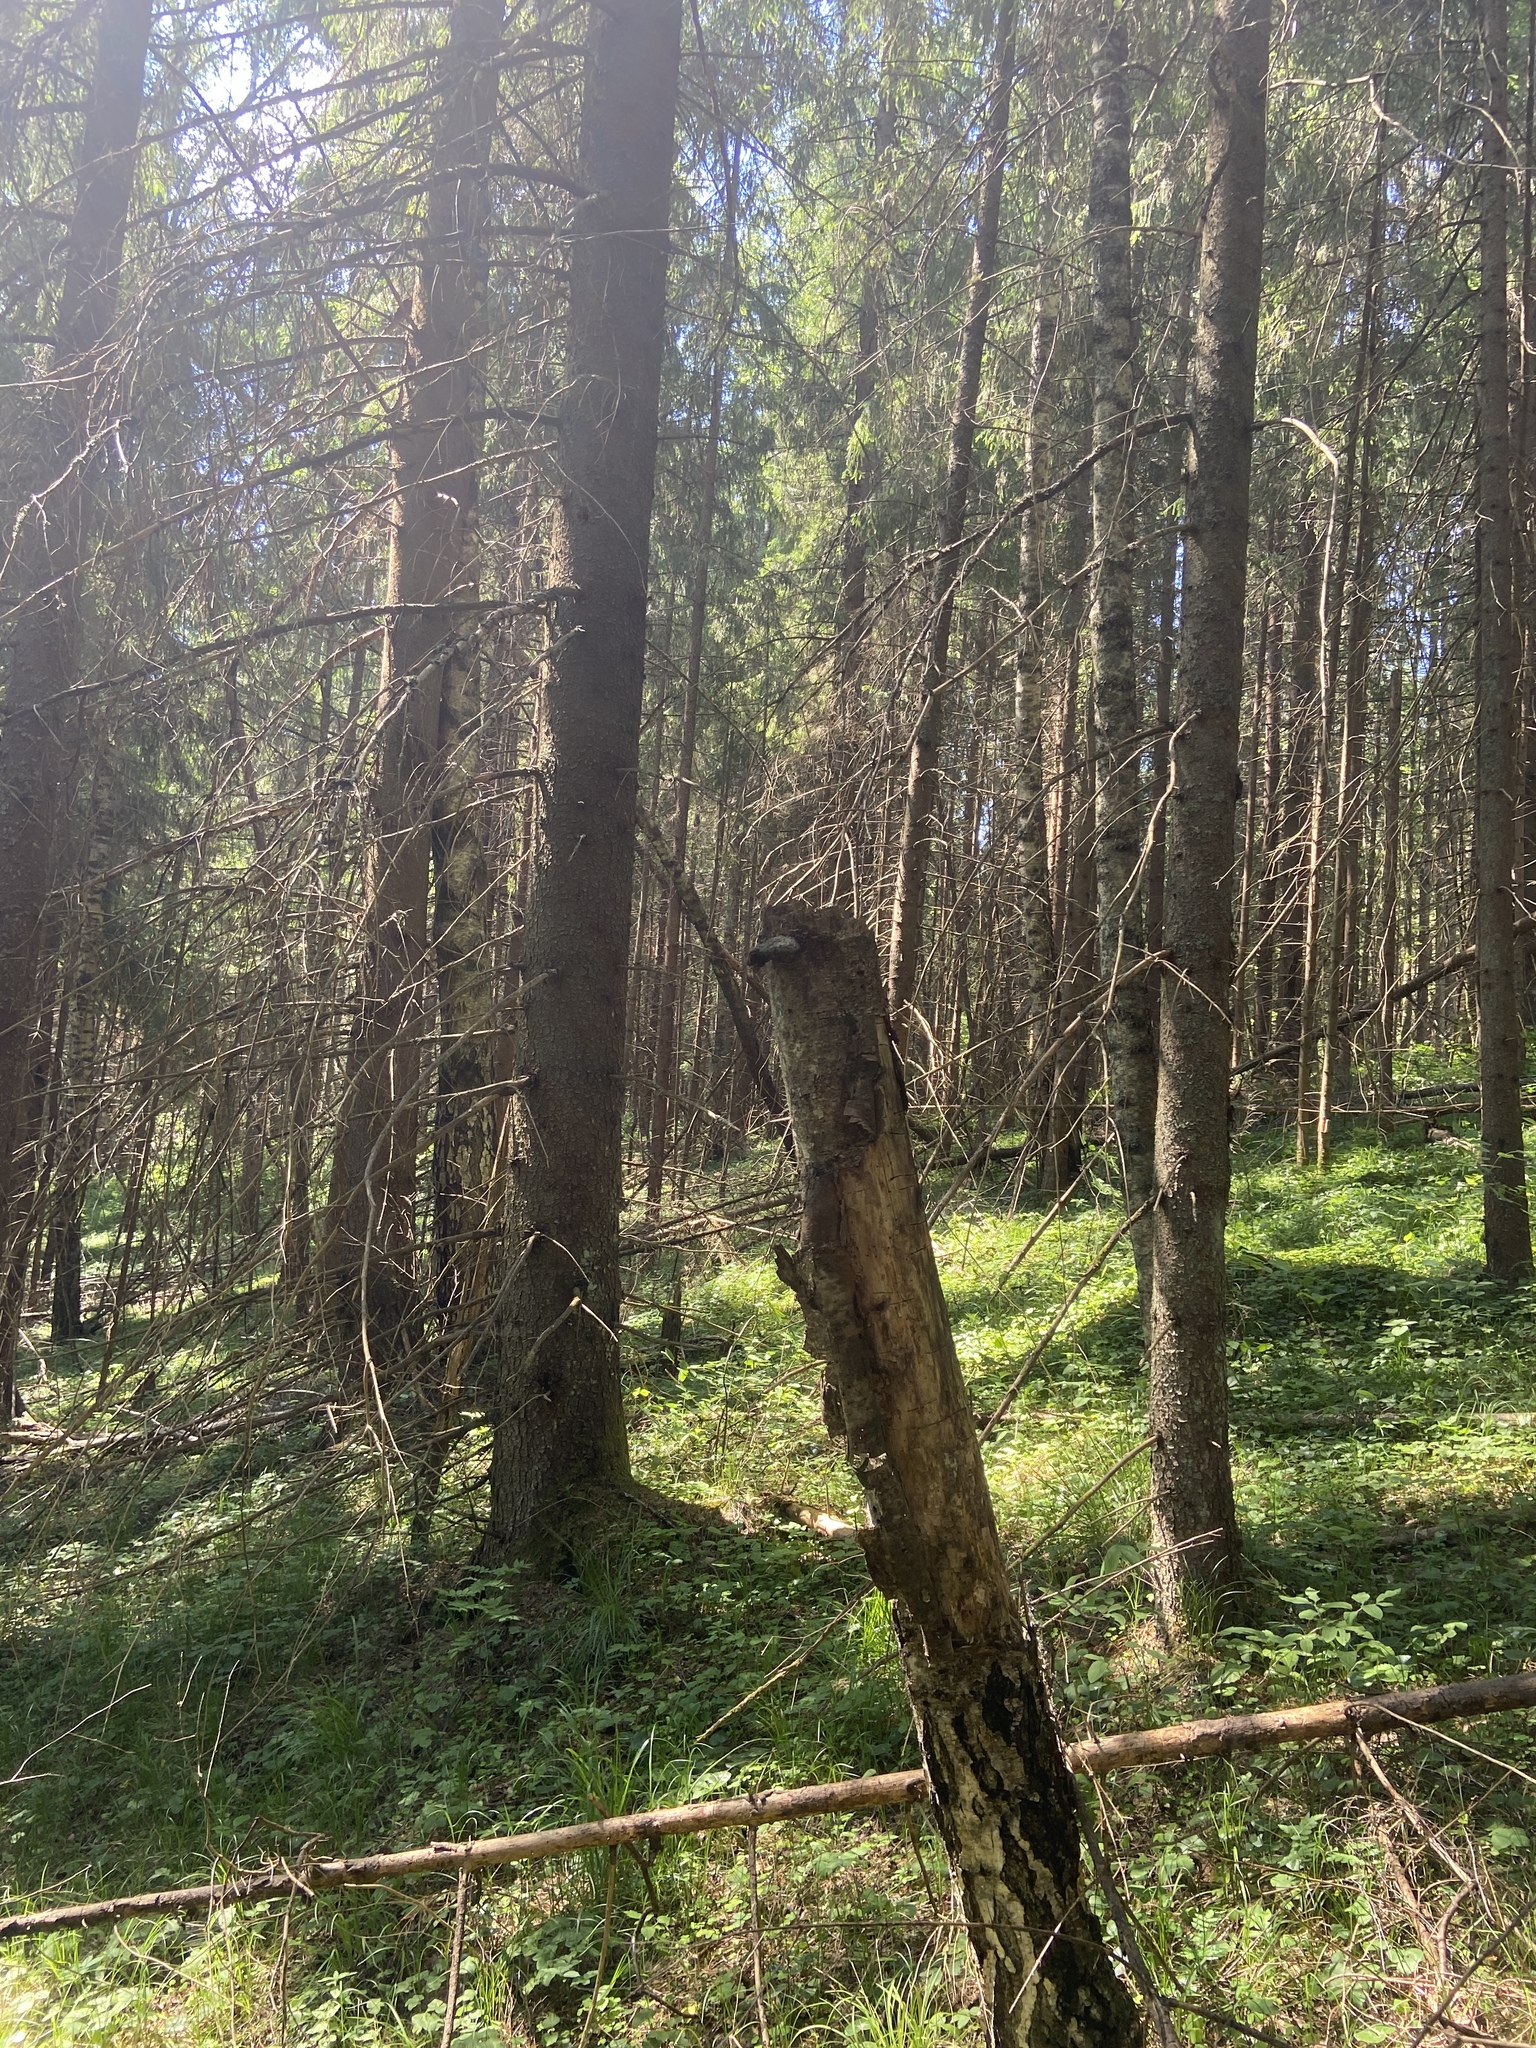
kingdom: Plantae
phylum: Tracheophyta
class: Pinopsida
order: Pinales
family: Pinaceae
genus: Picea
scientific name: Picea abies
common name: Norway spruce
